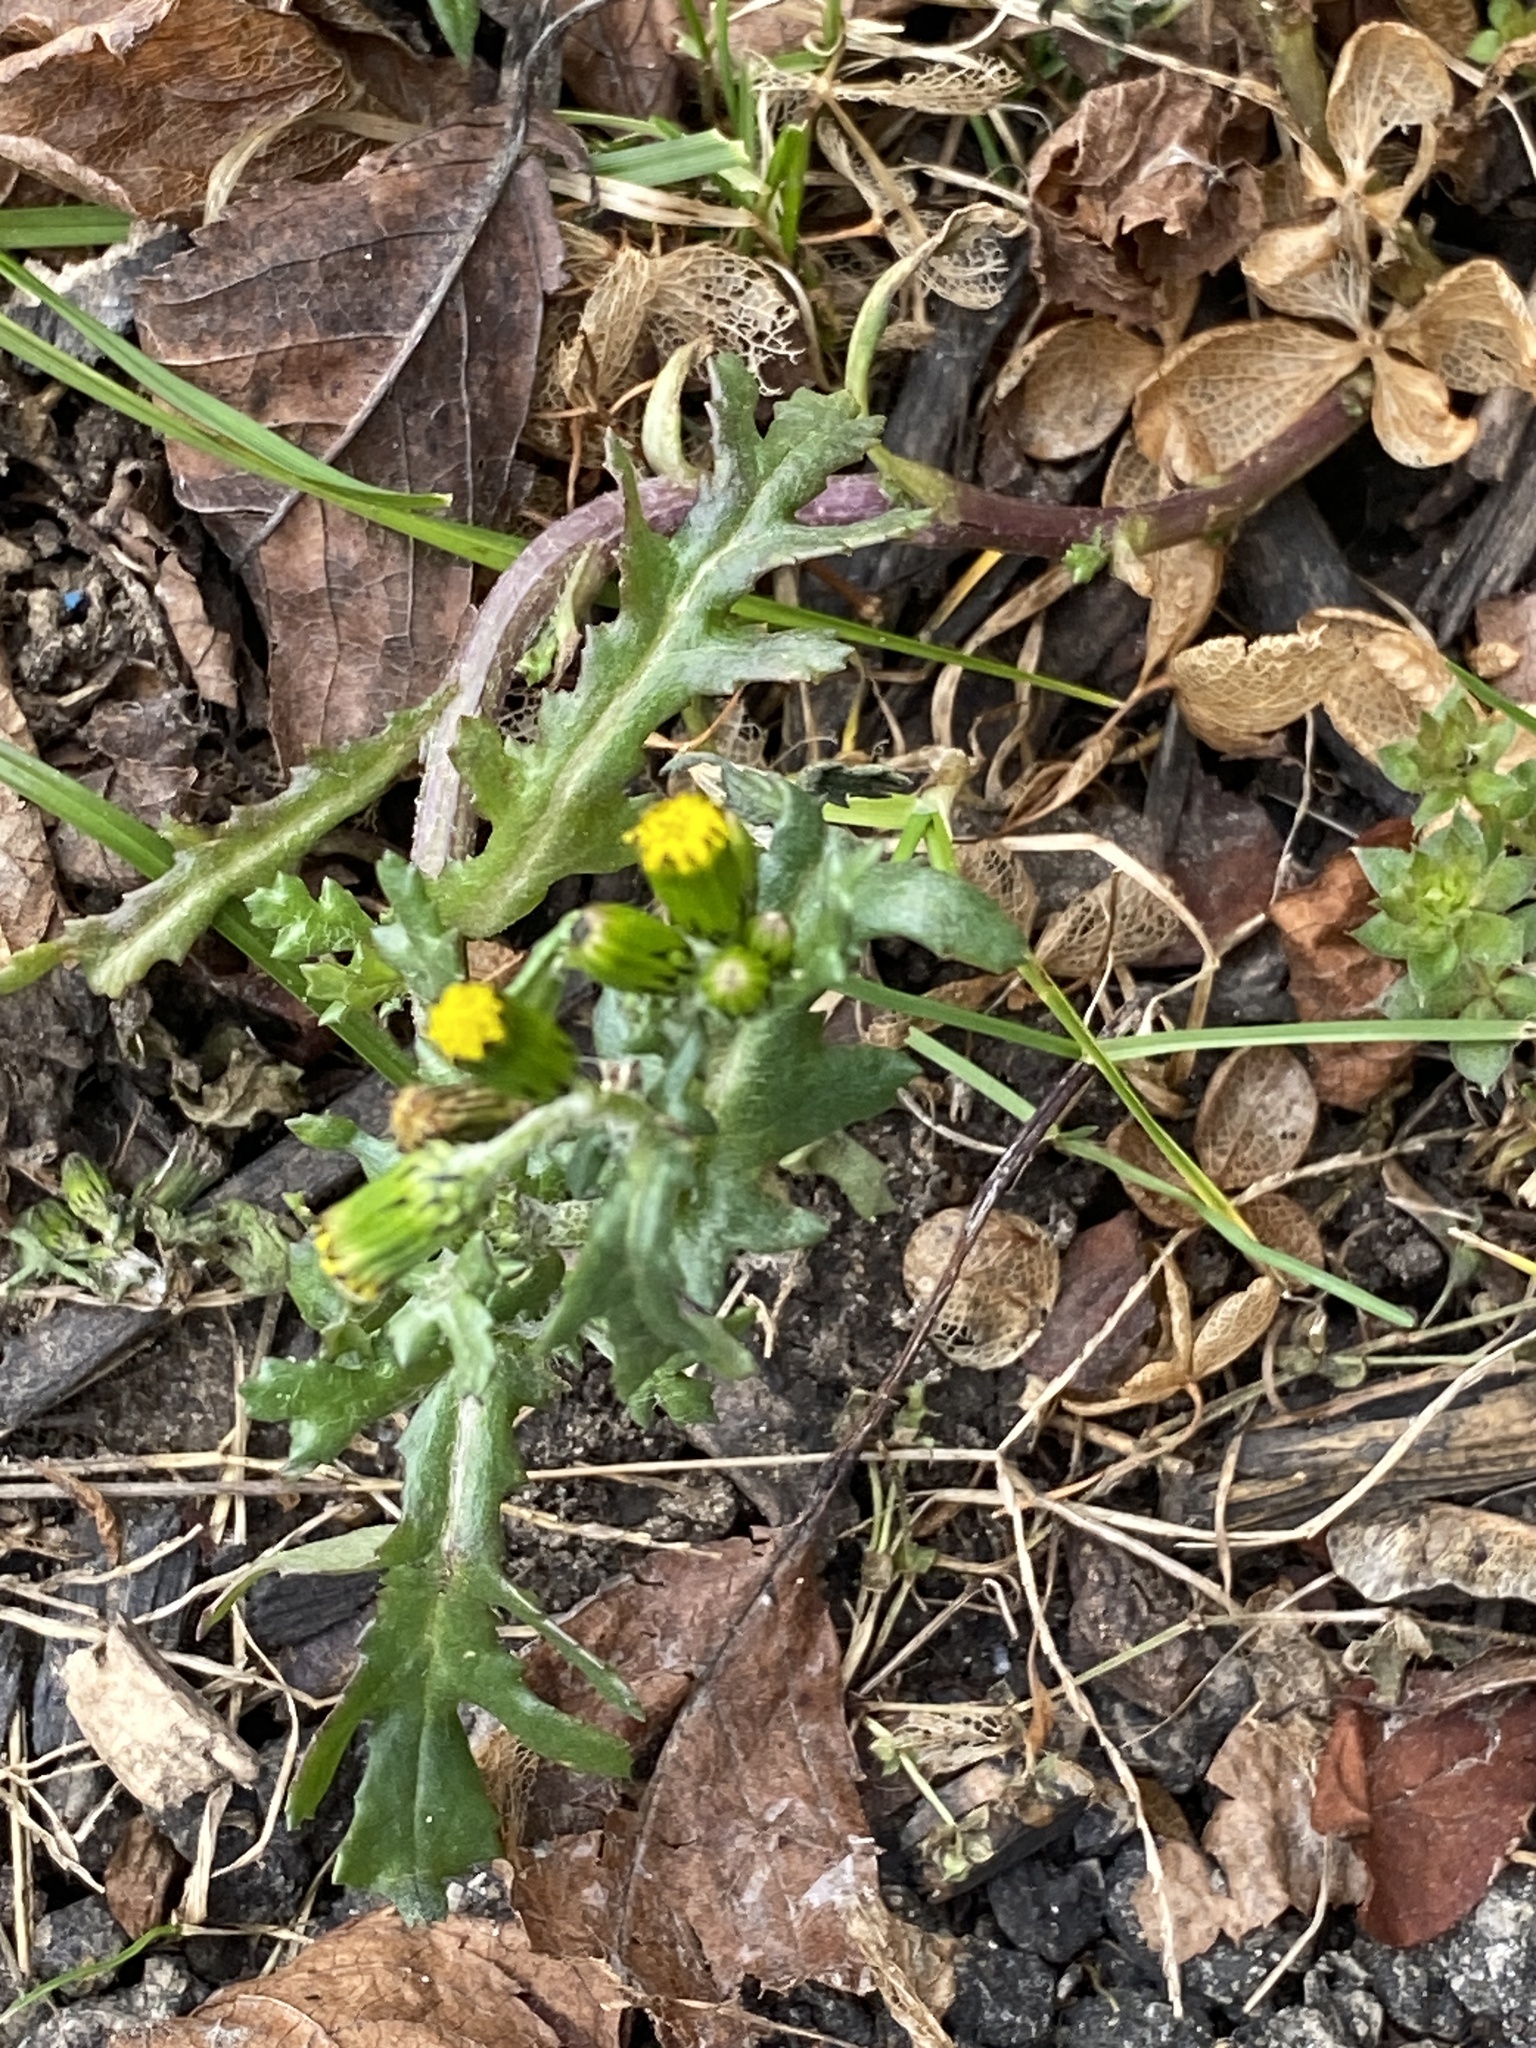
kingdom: Plantae
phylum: Tracheophyta
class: Magnoliopsida
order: Asterales
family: Asteraceae
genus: Senecio
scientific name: Senecio vulgaris
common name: Old-man-in-the-spring
